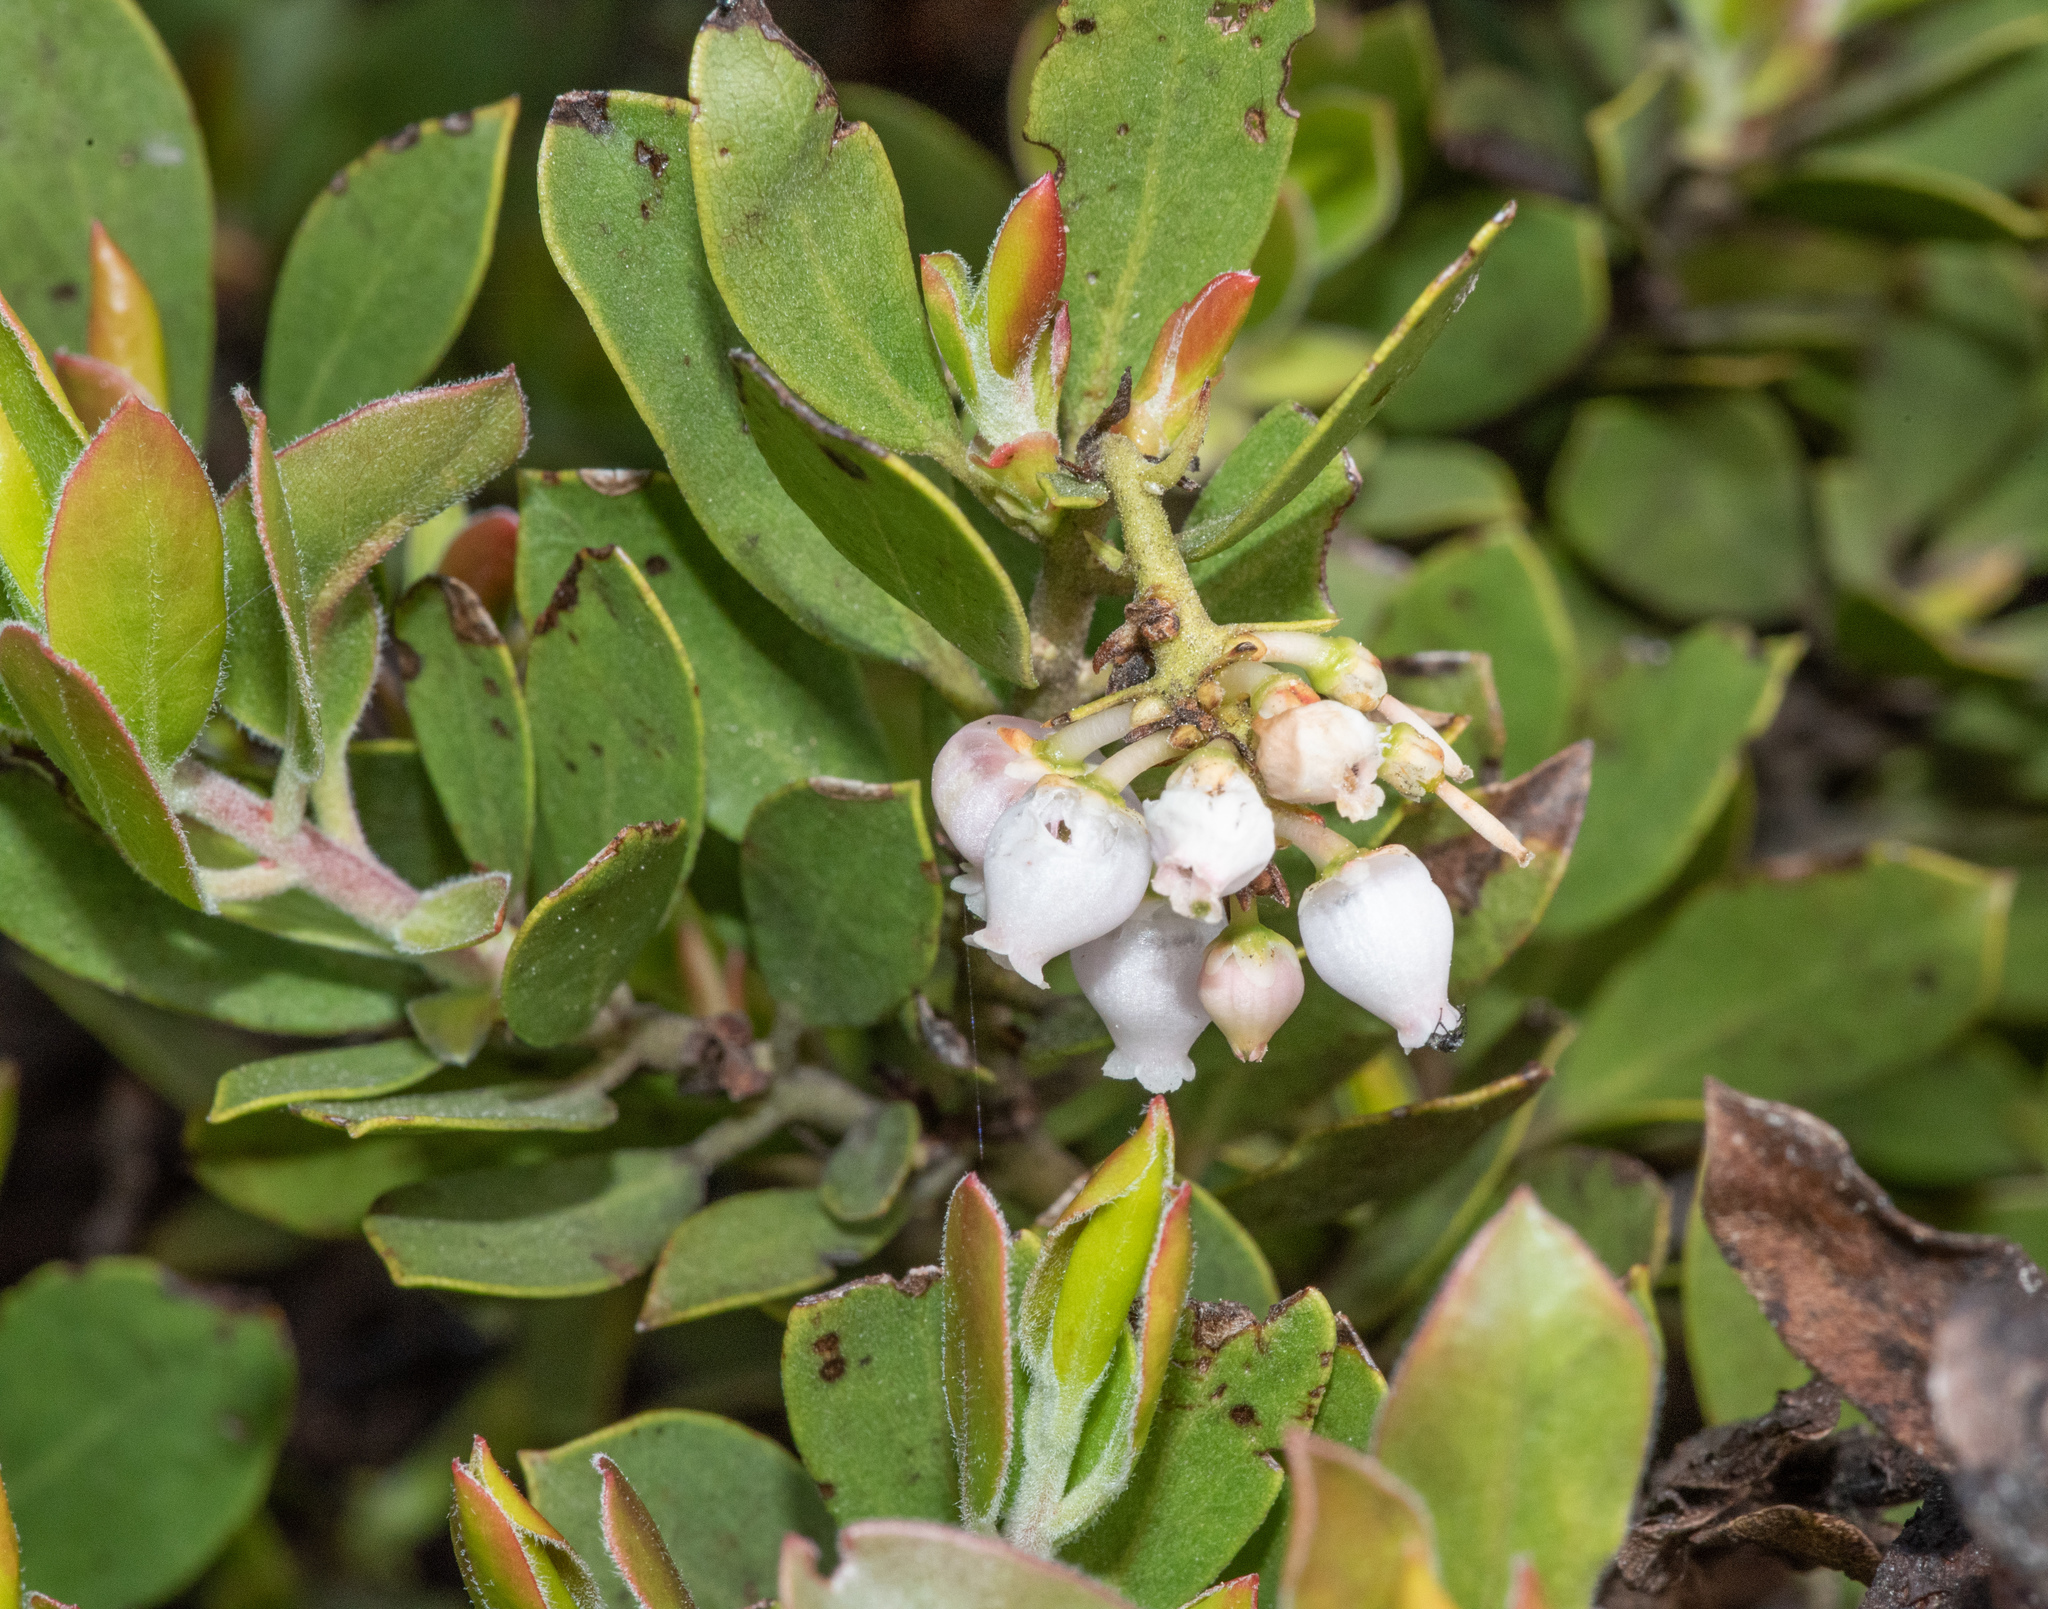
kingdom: Plantae
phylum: Tracheophyta
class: Magnoliopsida
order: Ericales
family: Ericaceae
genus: Arctostaphylos
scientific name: Arctostaphylos nevadensis
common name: Pinemat manzanita
